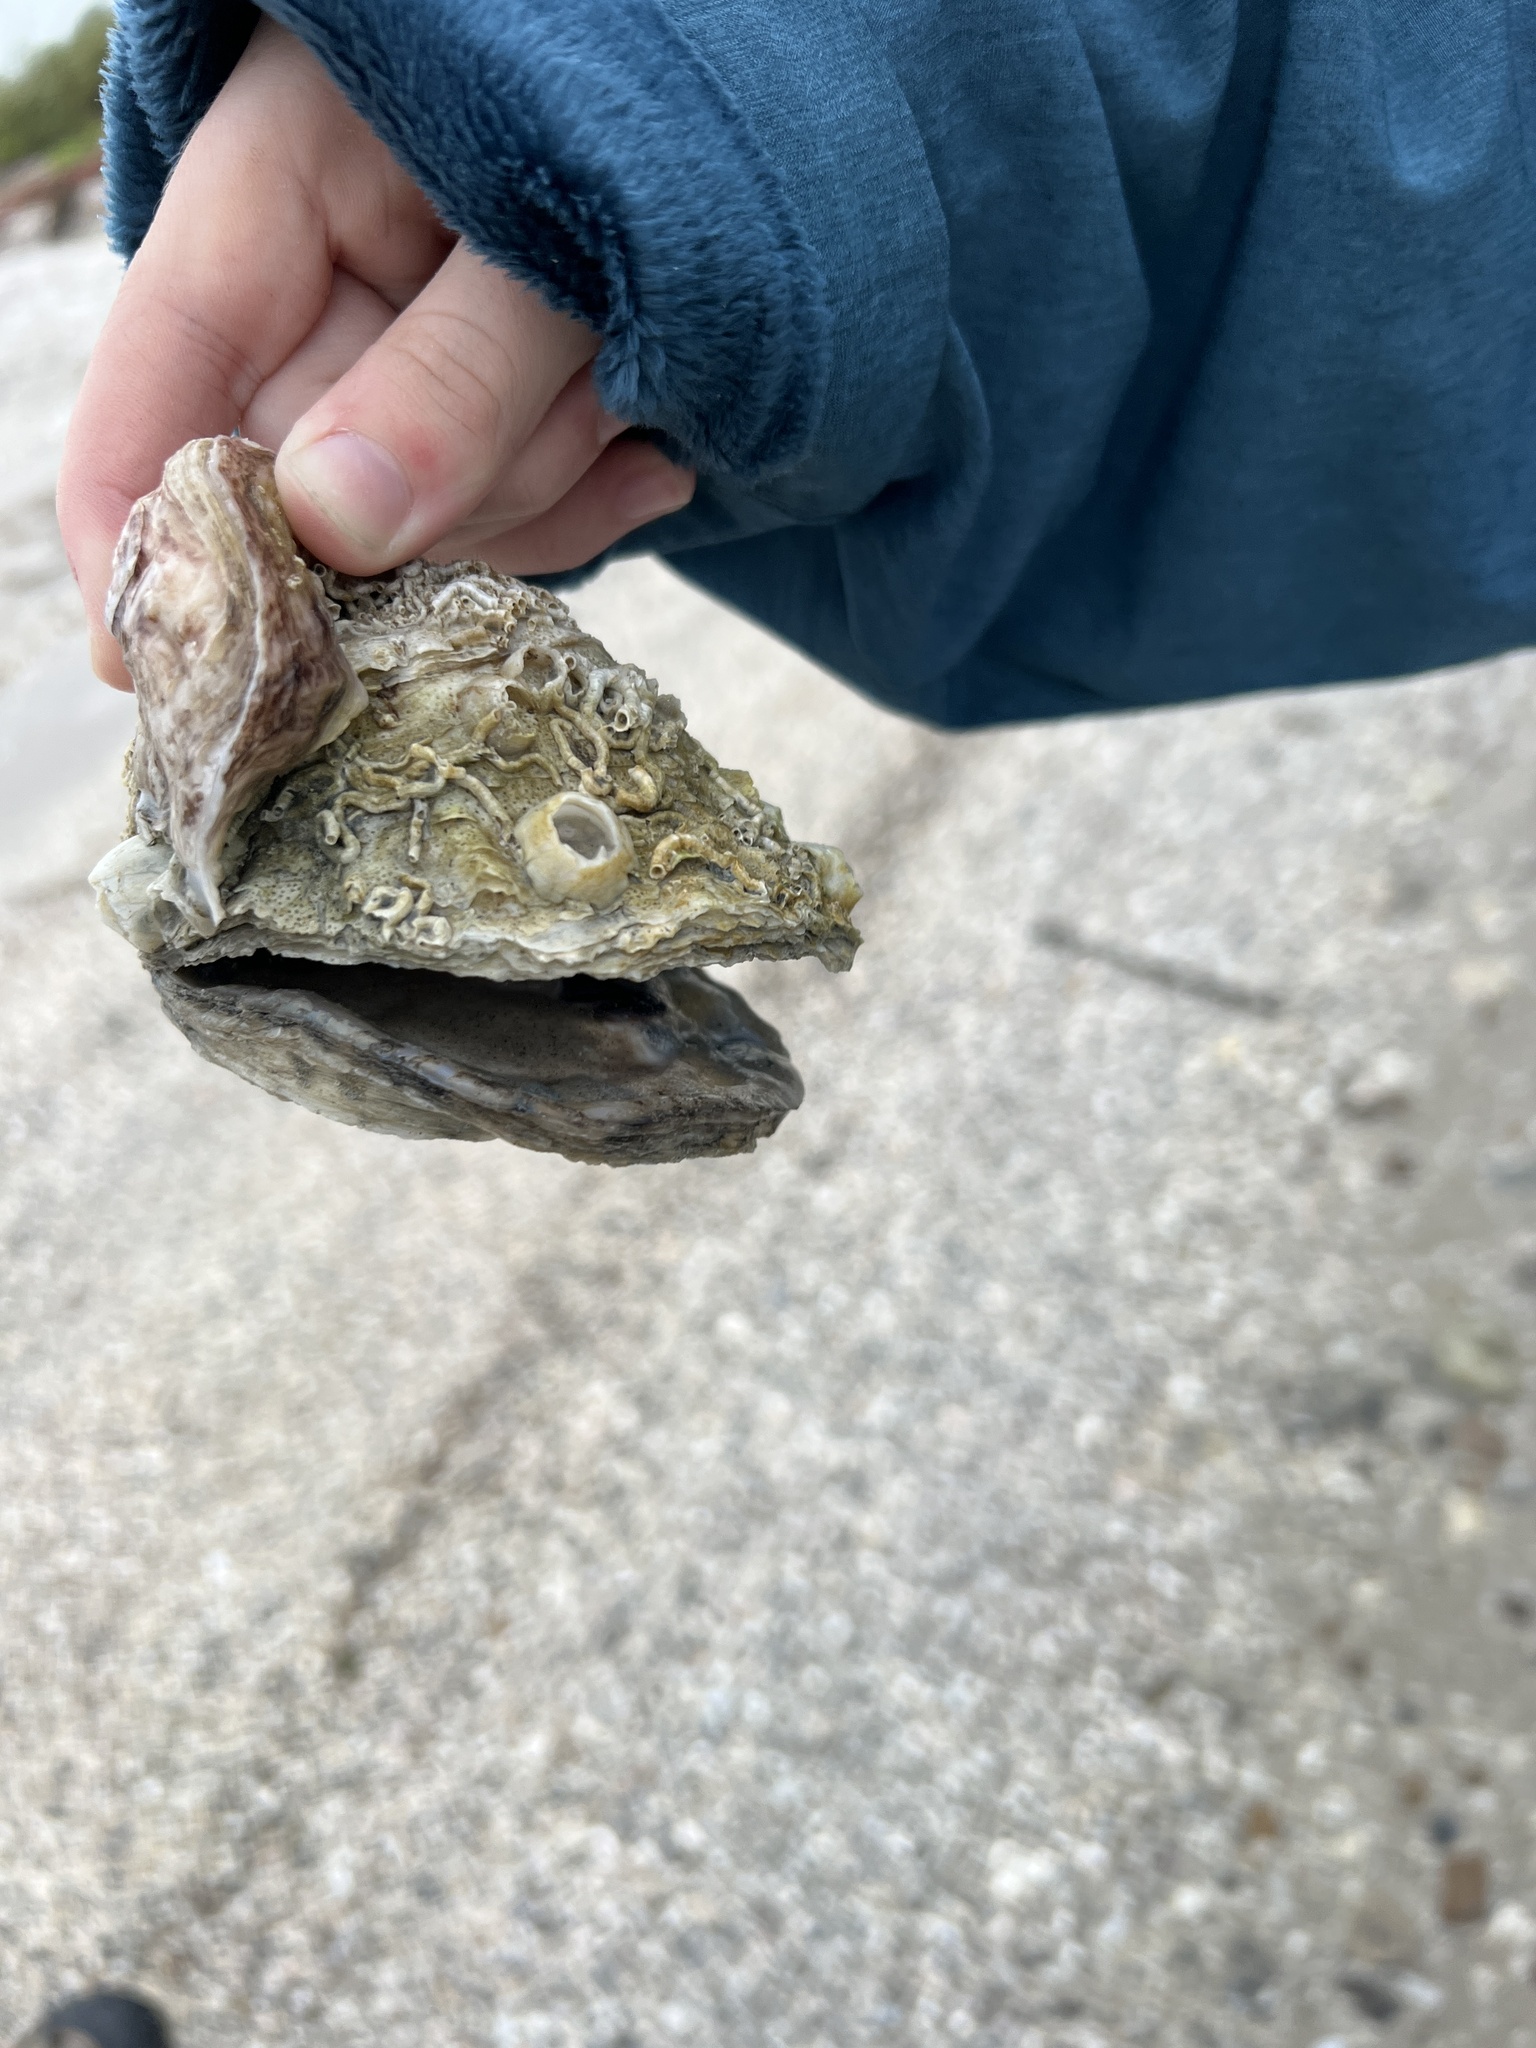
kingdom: Animalia
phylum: Mollusca
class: Bivalvia
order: Ostreida
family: Ostreidae
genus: Crassostrea
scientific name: Crassostrea virginica
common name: American oyster
